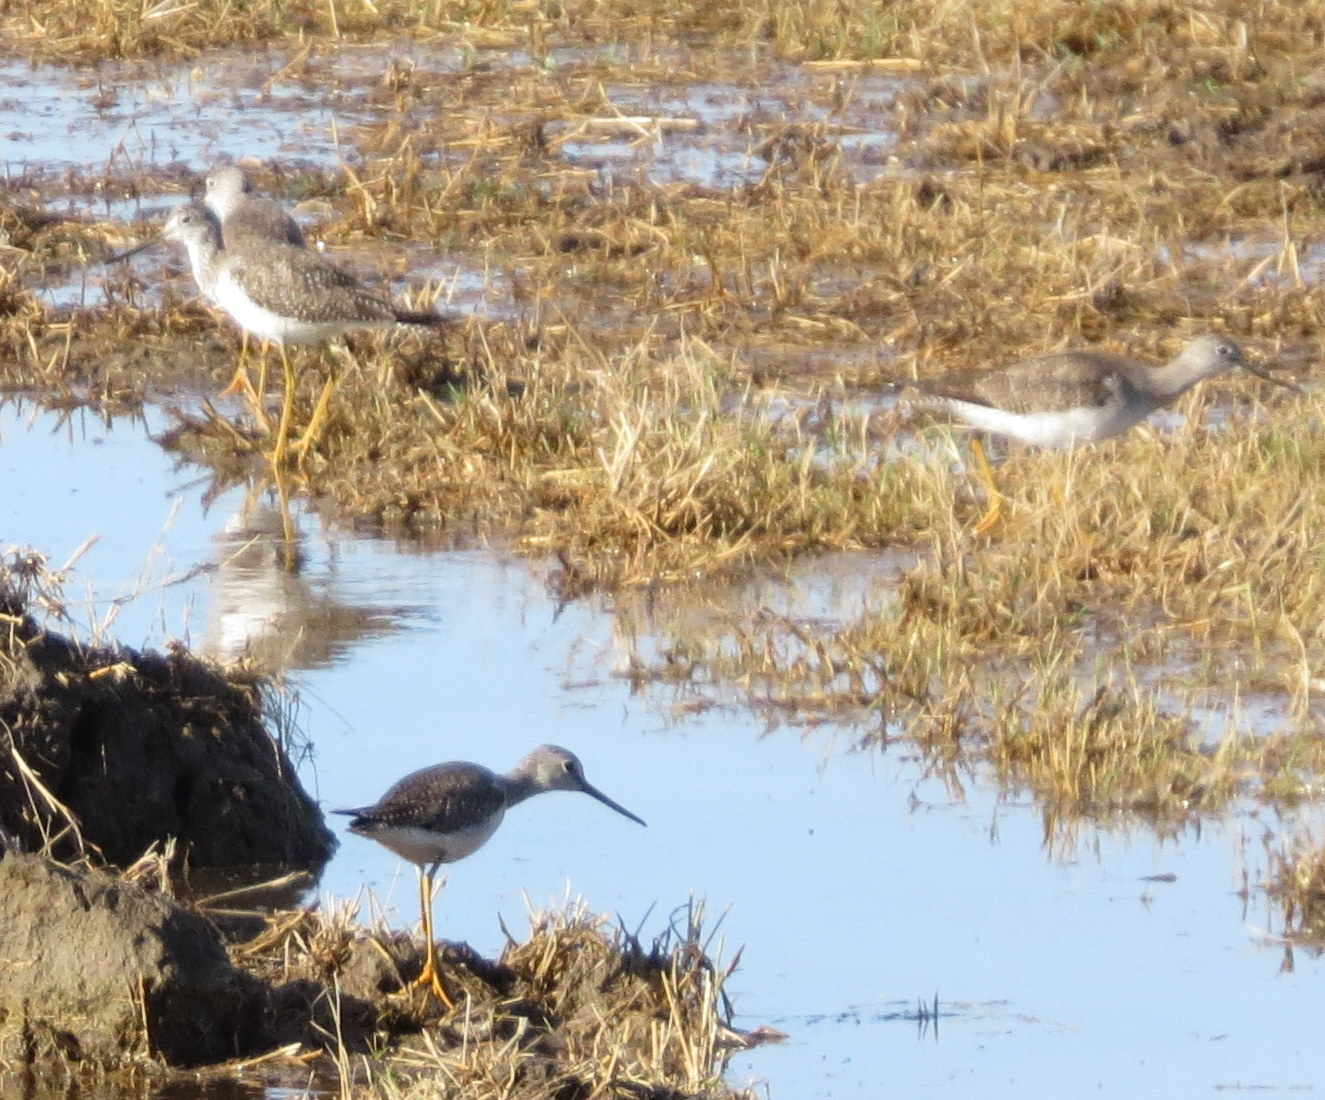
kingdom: Animalia
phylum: Chordata
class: Aves
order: Charadriiformes
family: Scolopacidae
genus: Tringa
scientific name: Tringa melanoleuca
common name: Greater yellowlegs
